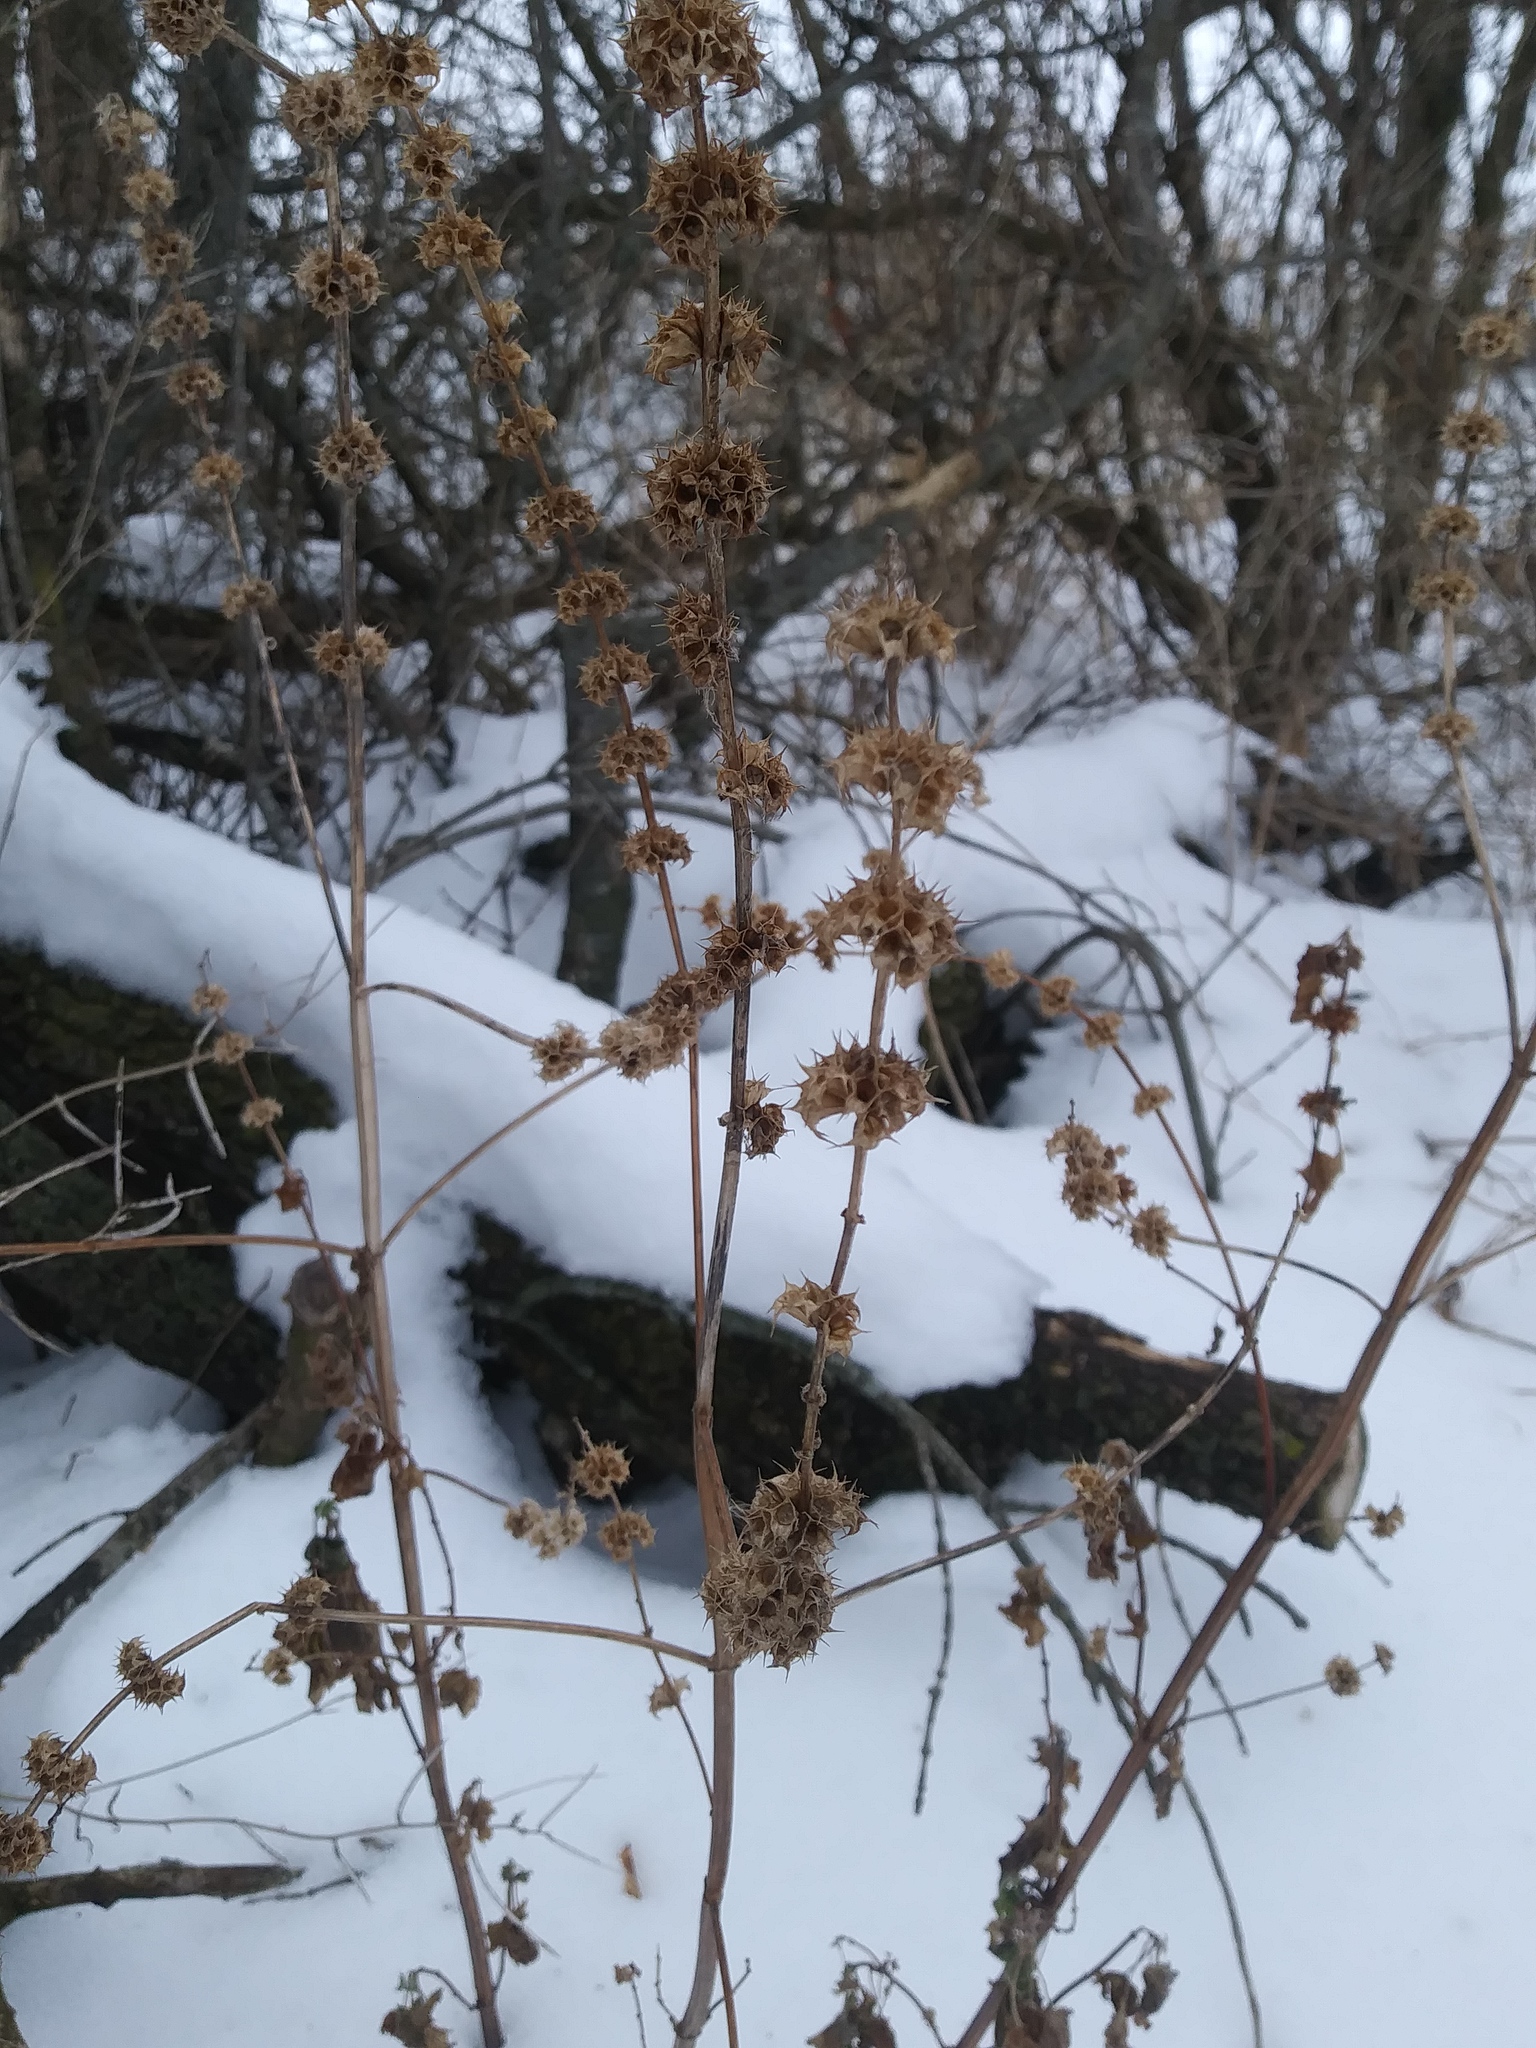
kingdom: Plantae
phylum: Tracheophyta
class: Magnoliopsida
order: Lamiales
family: Lamiaceae
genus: Leonurus
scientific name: Leonurus cardiaca
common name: Motherwort
